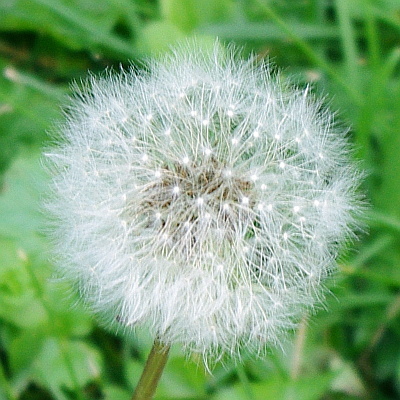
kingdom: Plantae
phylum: Tracheophyta
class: Magnoliopsida
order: Asterales
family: Asteraceae
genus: Taraxacum
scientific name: Taraxacum officinale
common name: Common dandelion
